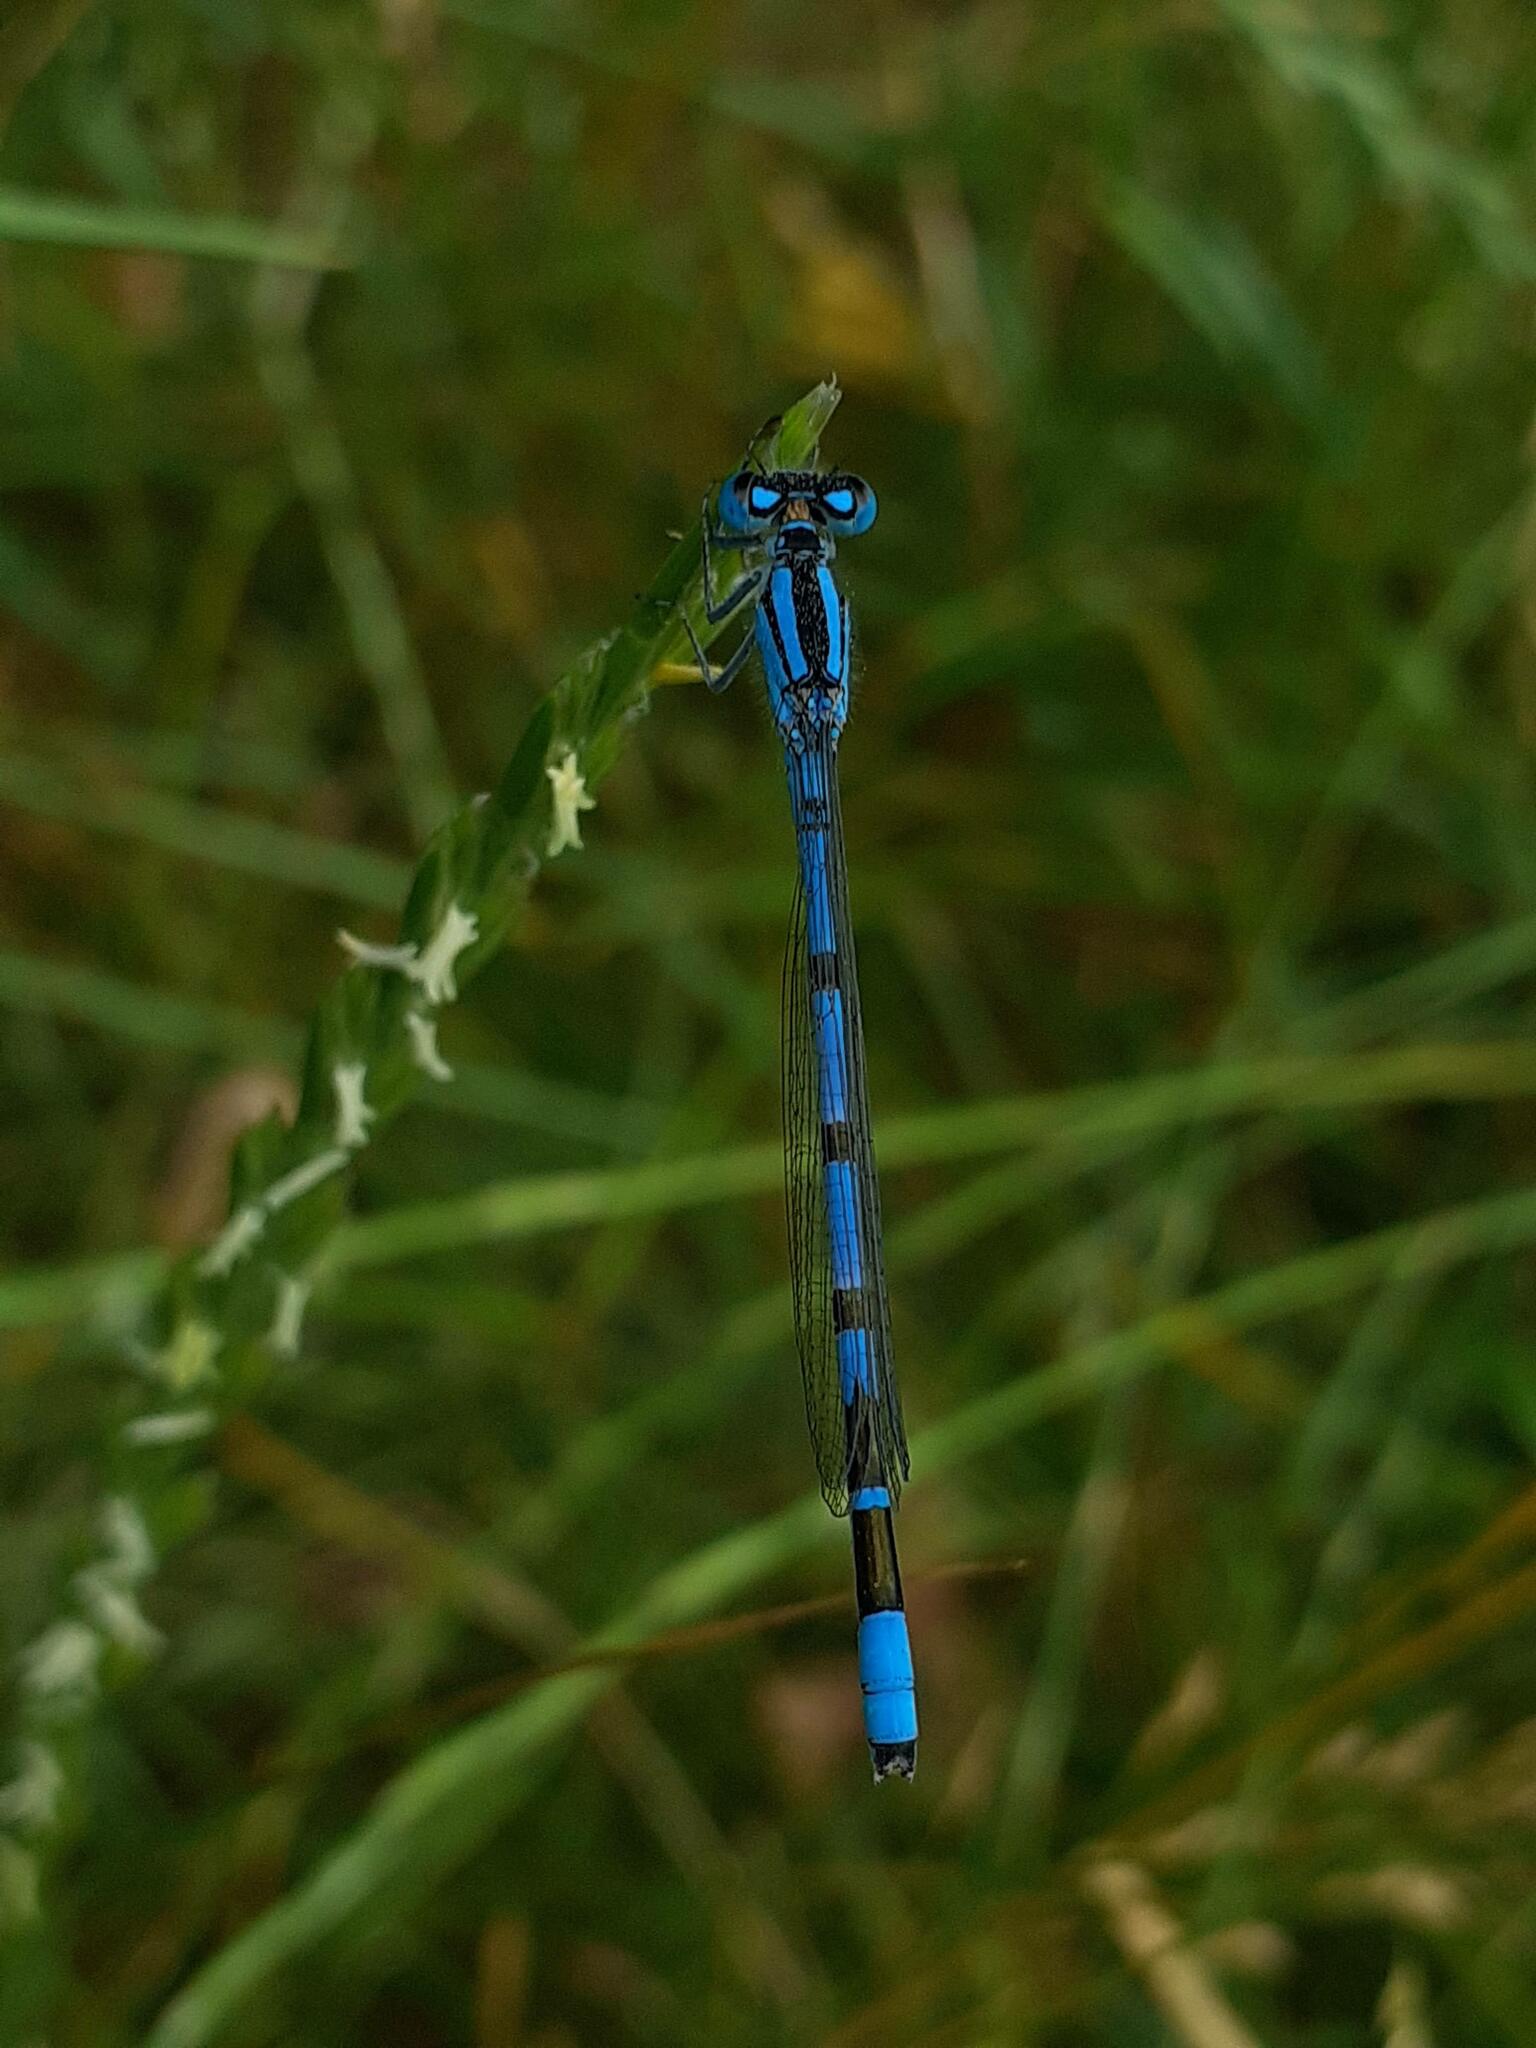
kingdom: Animalia
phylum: Arthropoda
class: Insecta
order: Odonata
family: Coenagrionidae
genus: Enallagma
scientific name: Enallagma cyathigerum
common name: Common blue damselfly
